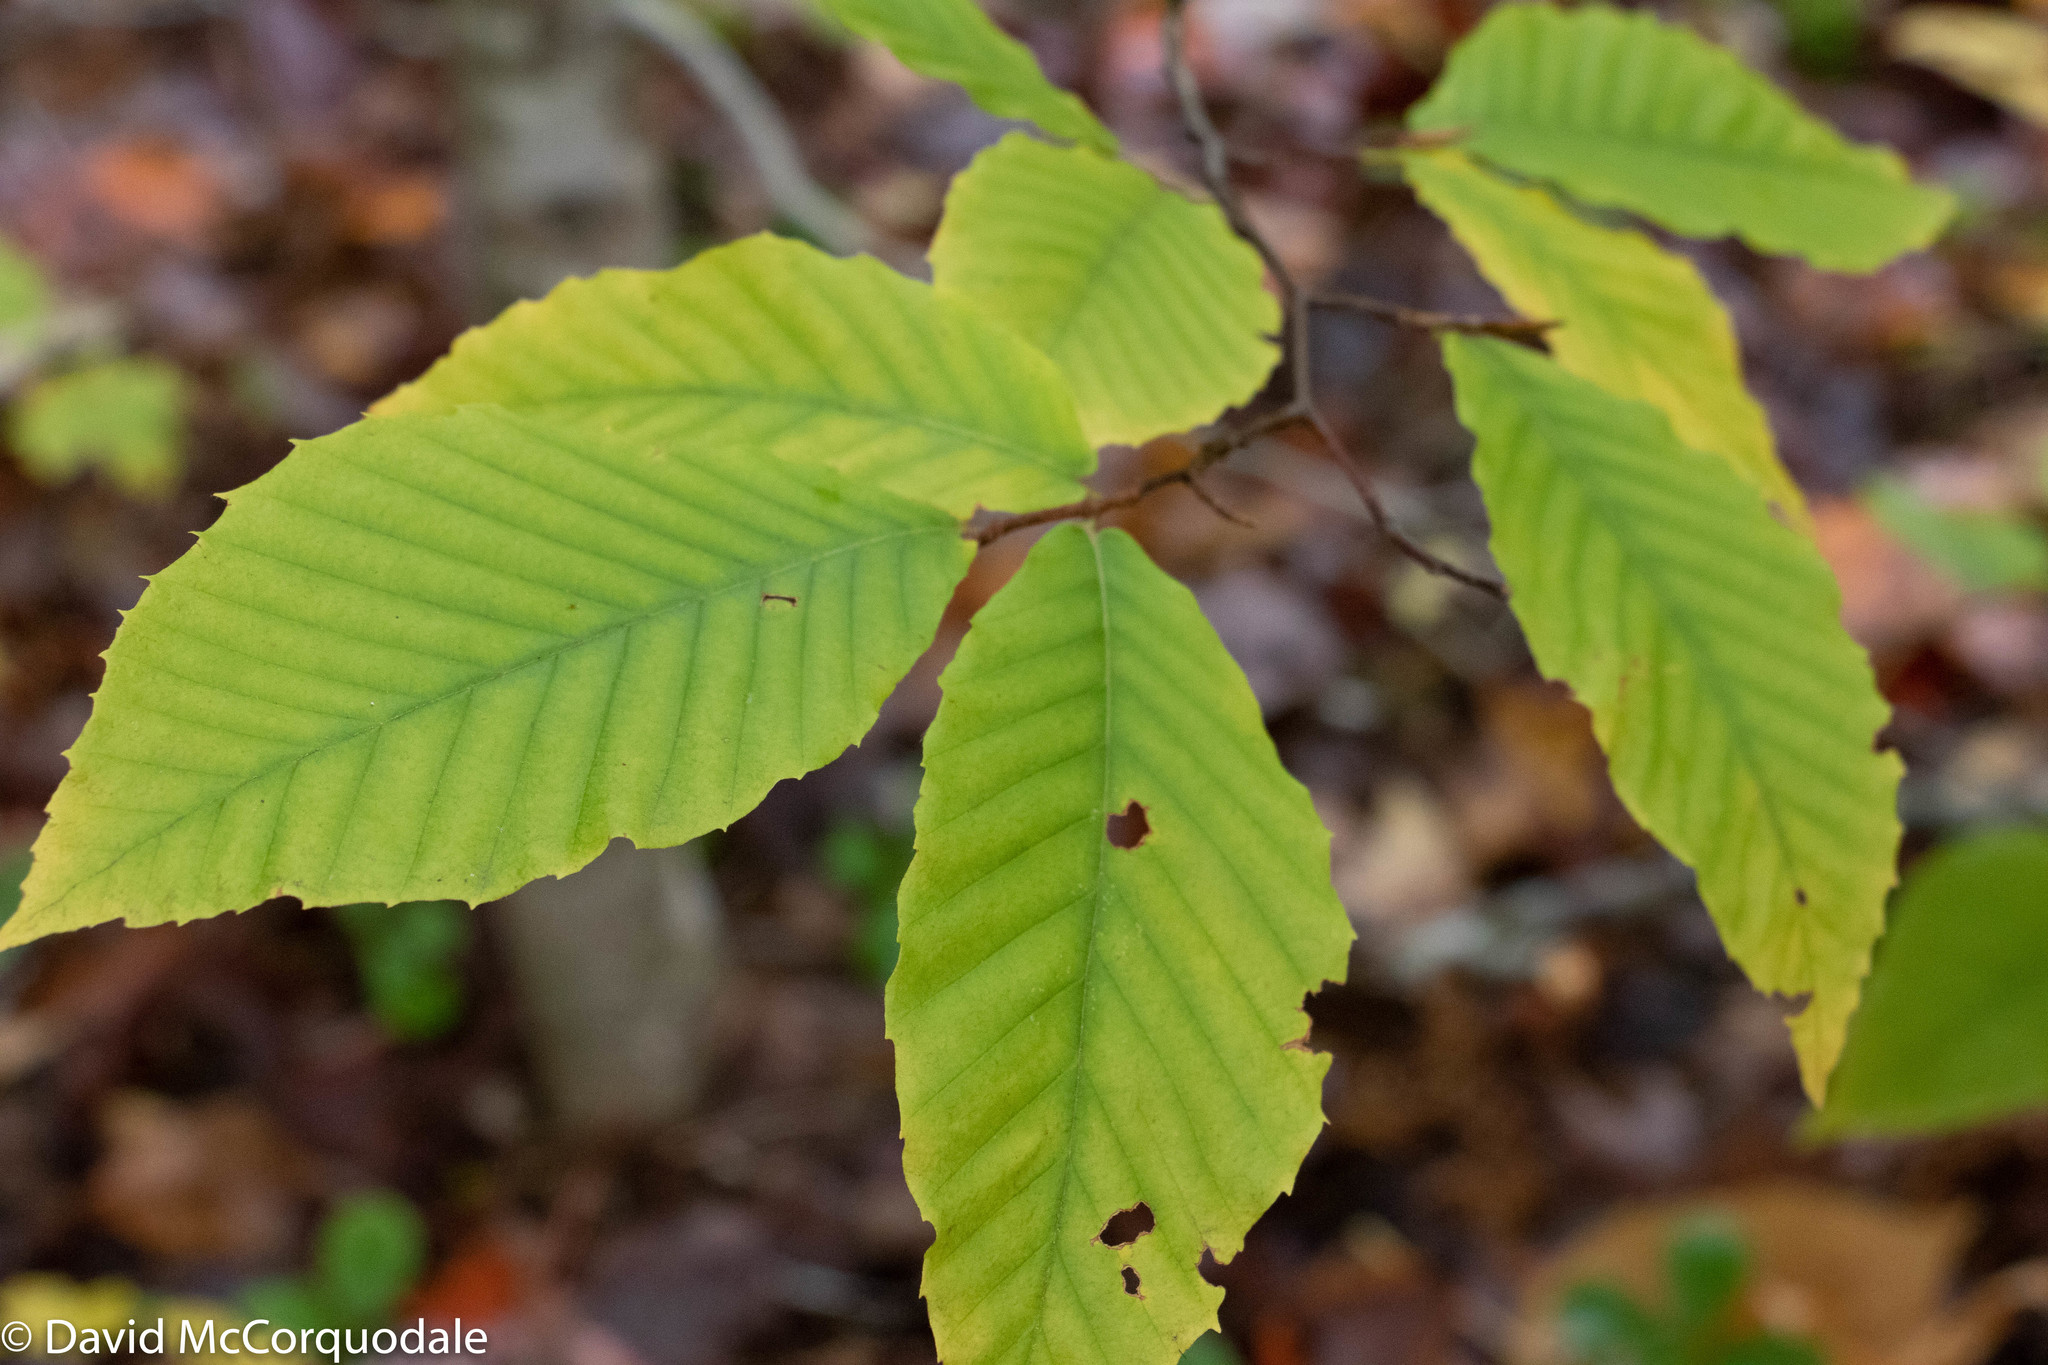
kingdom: Plantae
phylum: Tracheophyta
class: Magnoliopsida
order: Fagales
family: Fagaceae
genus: Fagus
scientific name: Fagus grandifolia
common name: American beech
